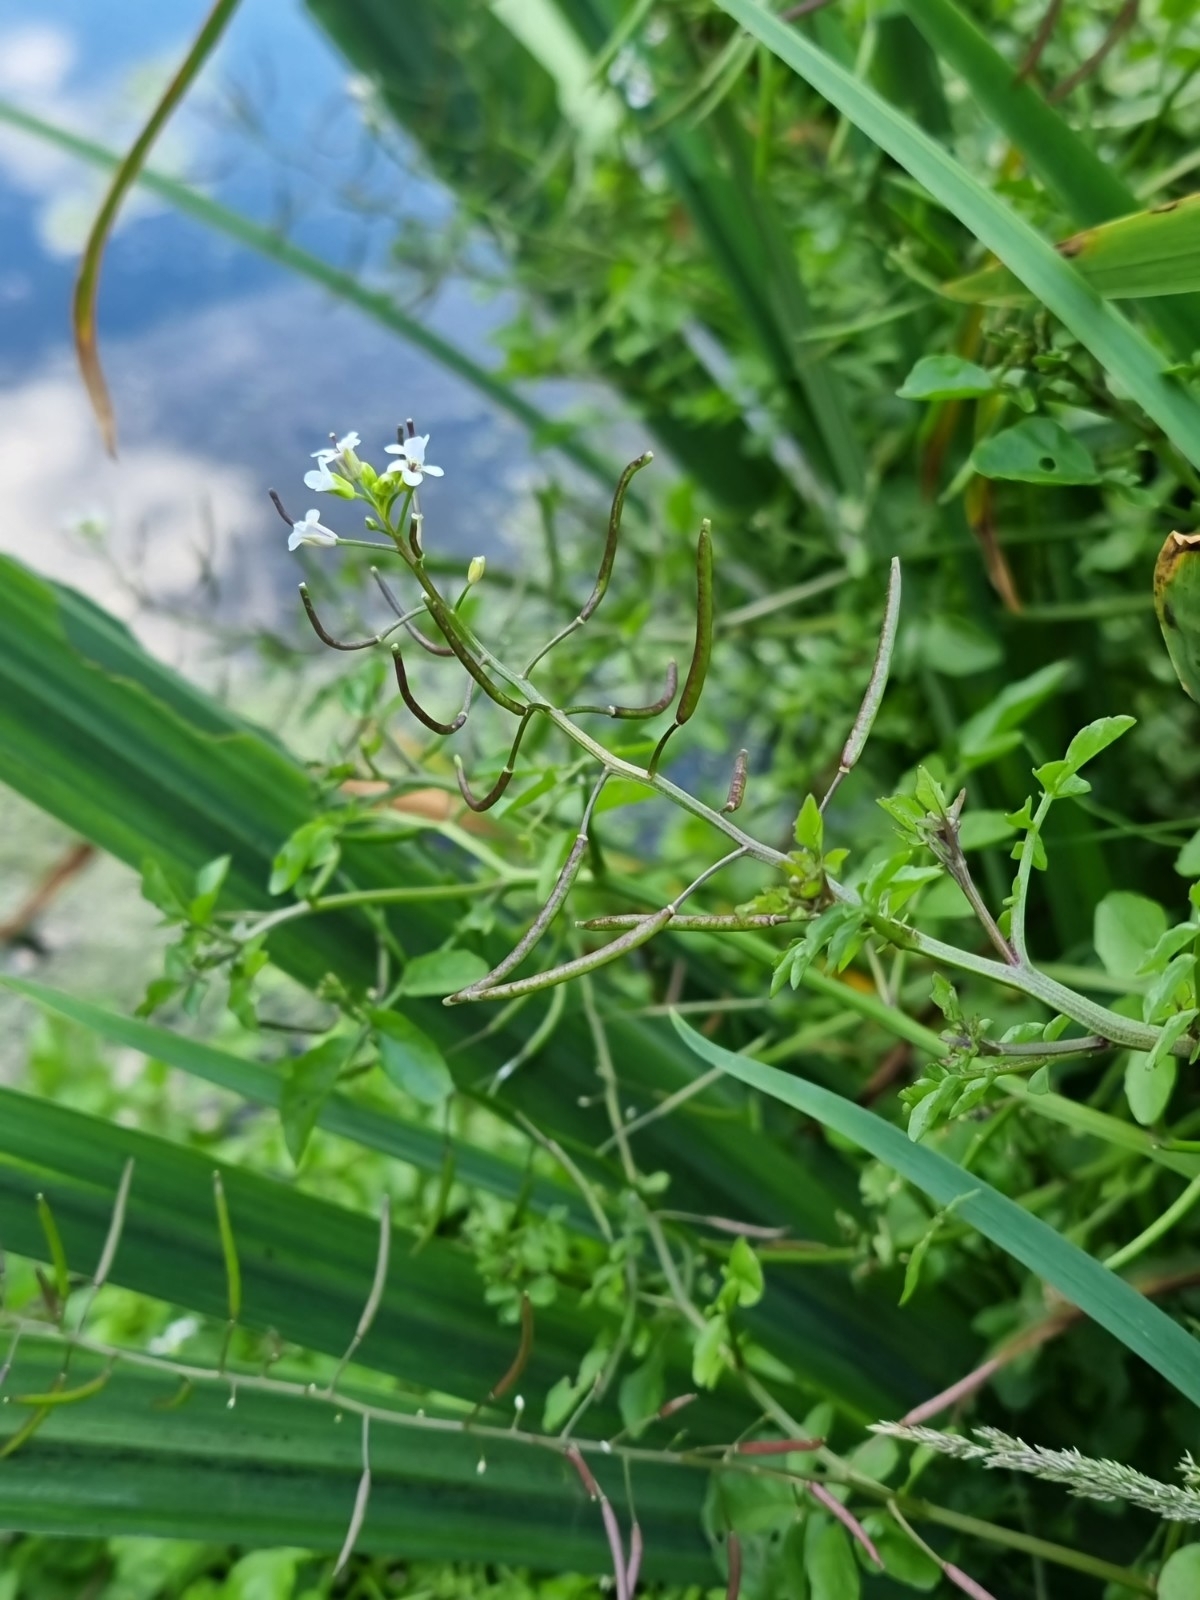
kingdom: Plantae
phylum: Tracheophyta
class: Magnoliopsida
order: Brassicales
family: Brassicaceae
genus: Nasturtium
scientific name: Nasturtium officinale
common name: Watercress
